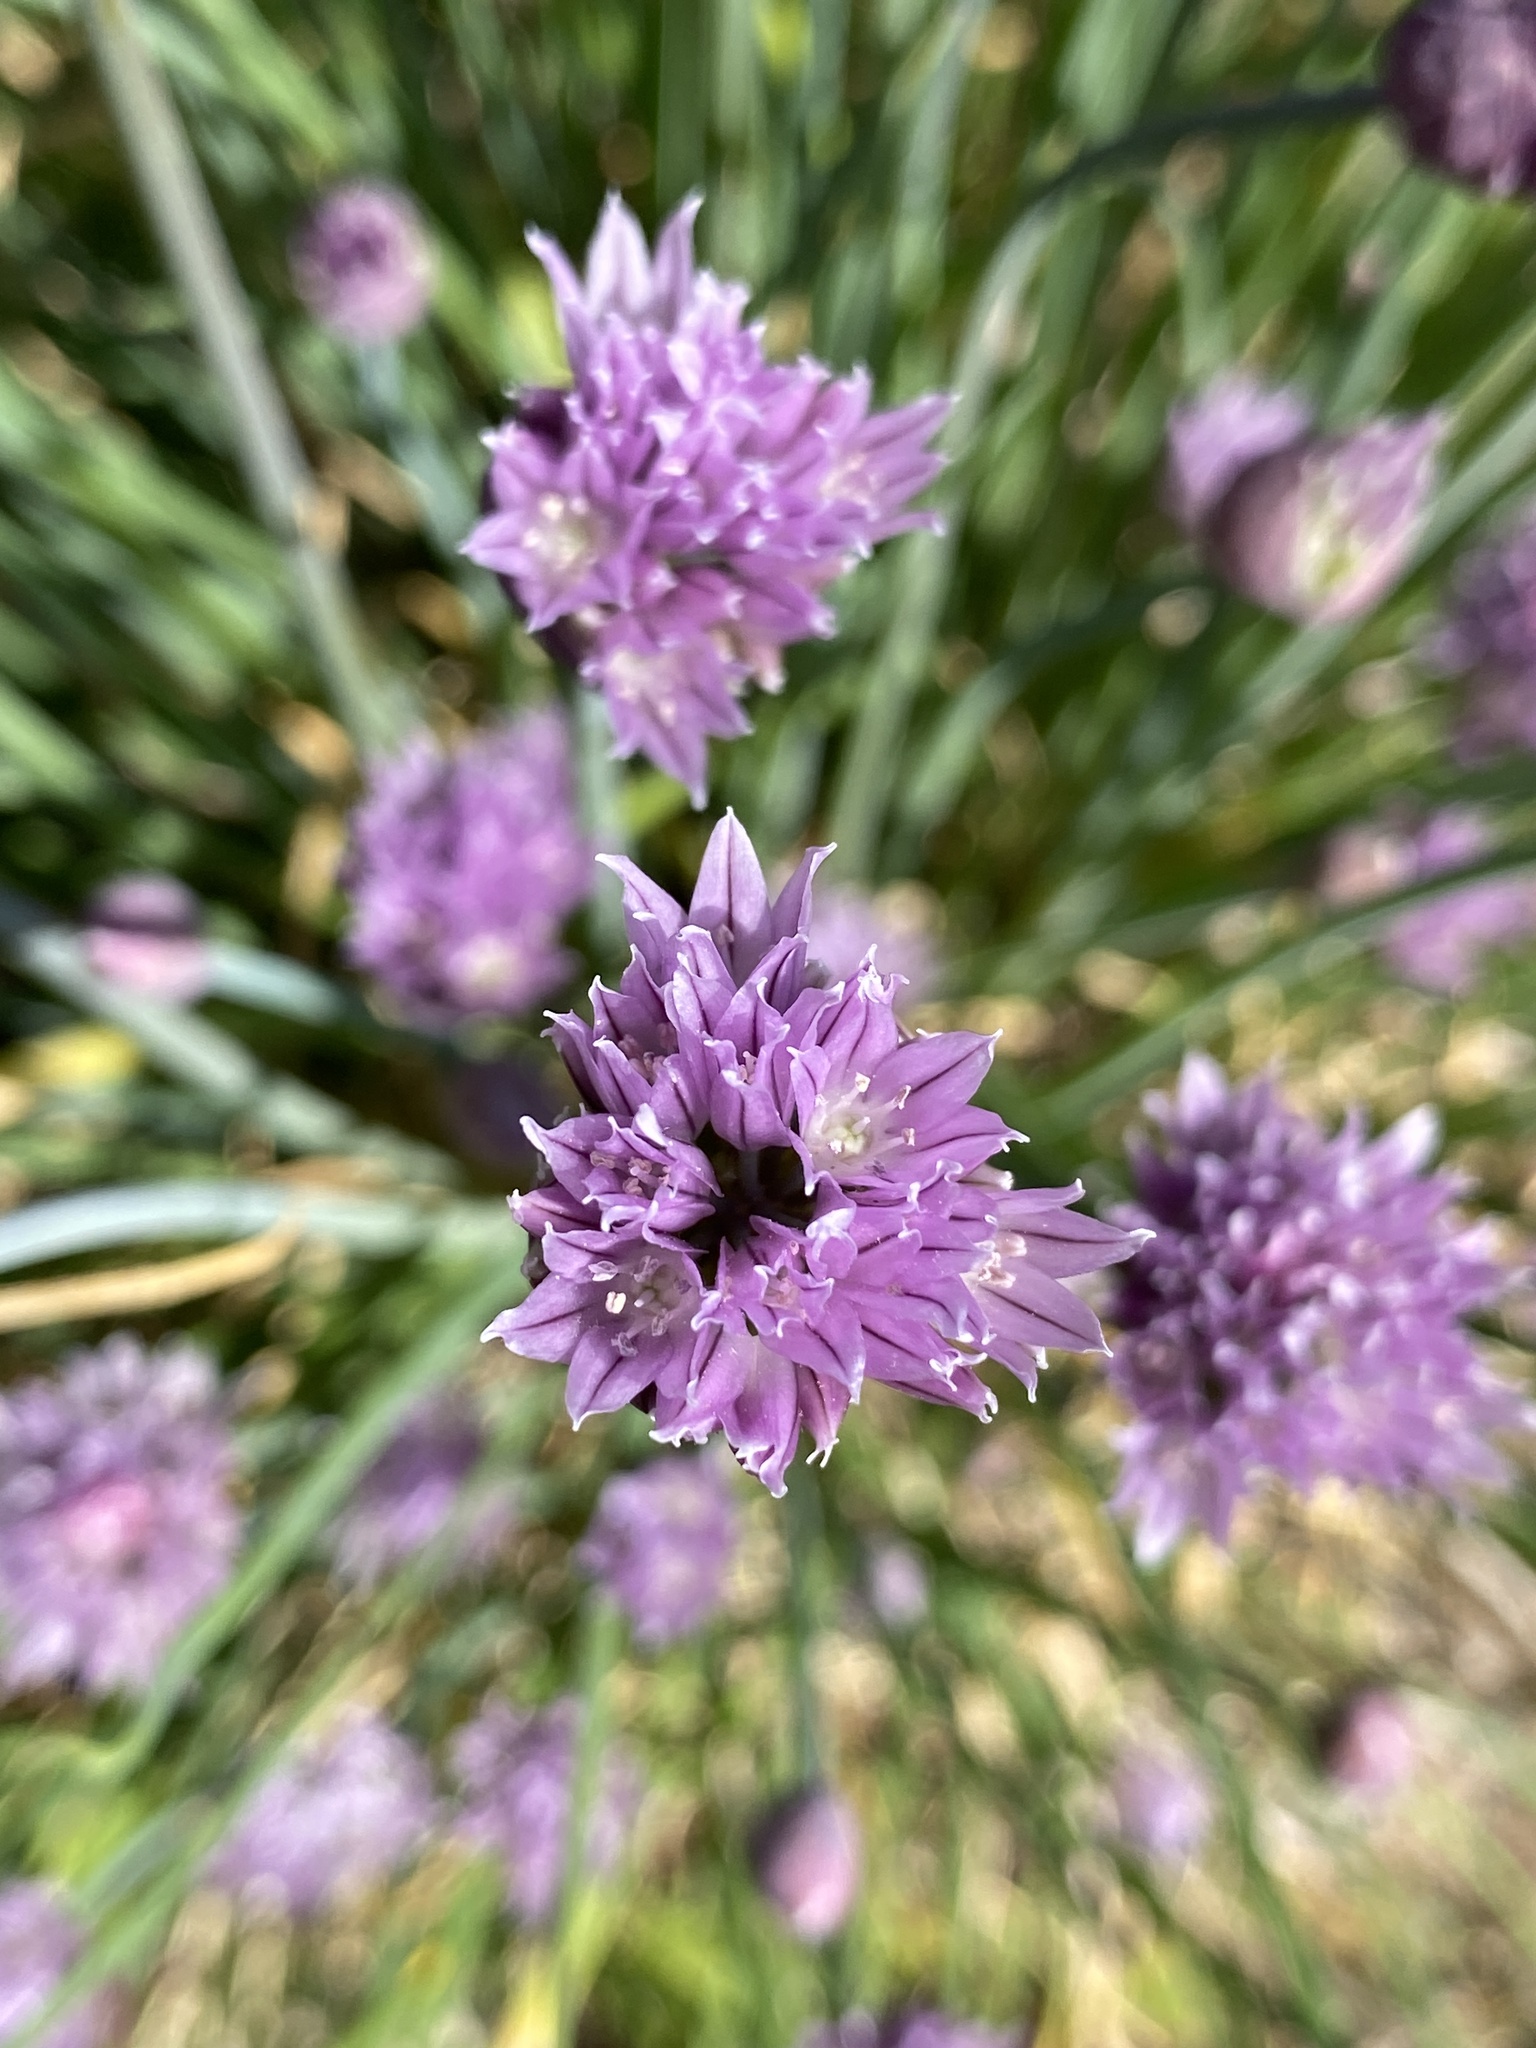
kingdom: Plantae
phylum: Tracheophyta
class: Liliopsida
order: Asparagales
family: Amaryllidaceae
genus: Allium
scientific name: Allium schoenoprasum
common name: Chives
